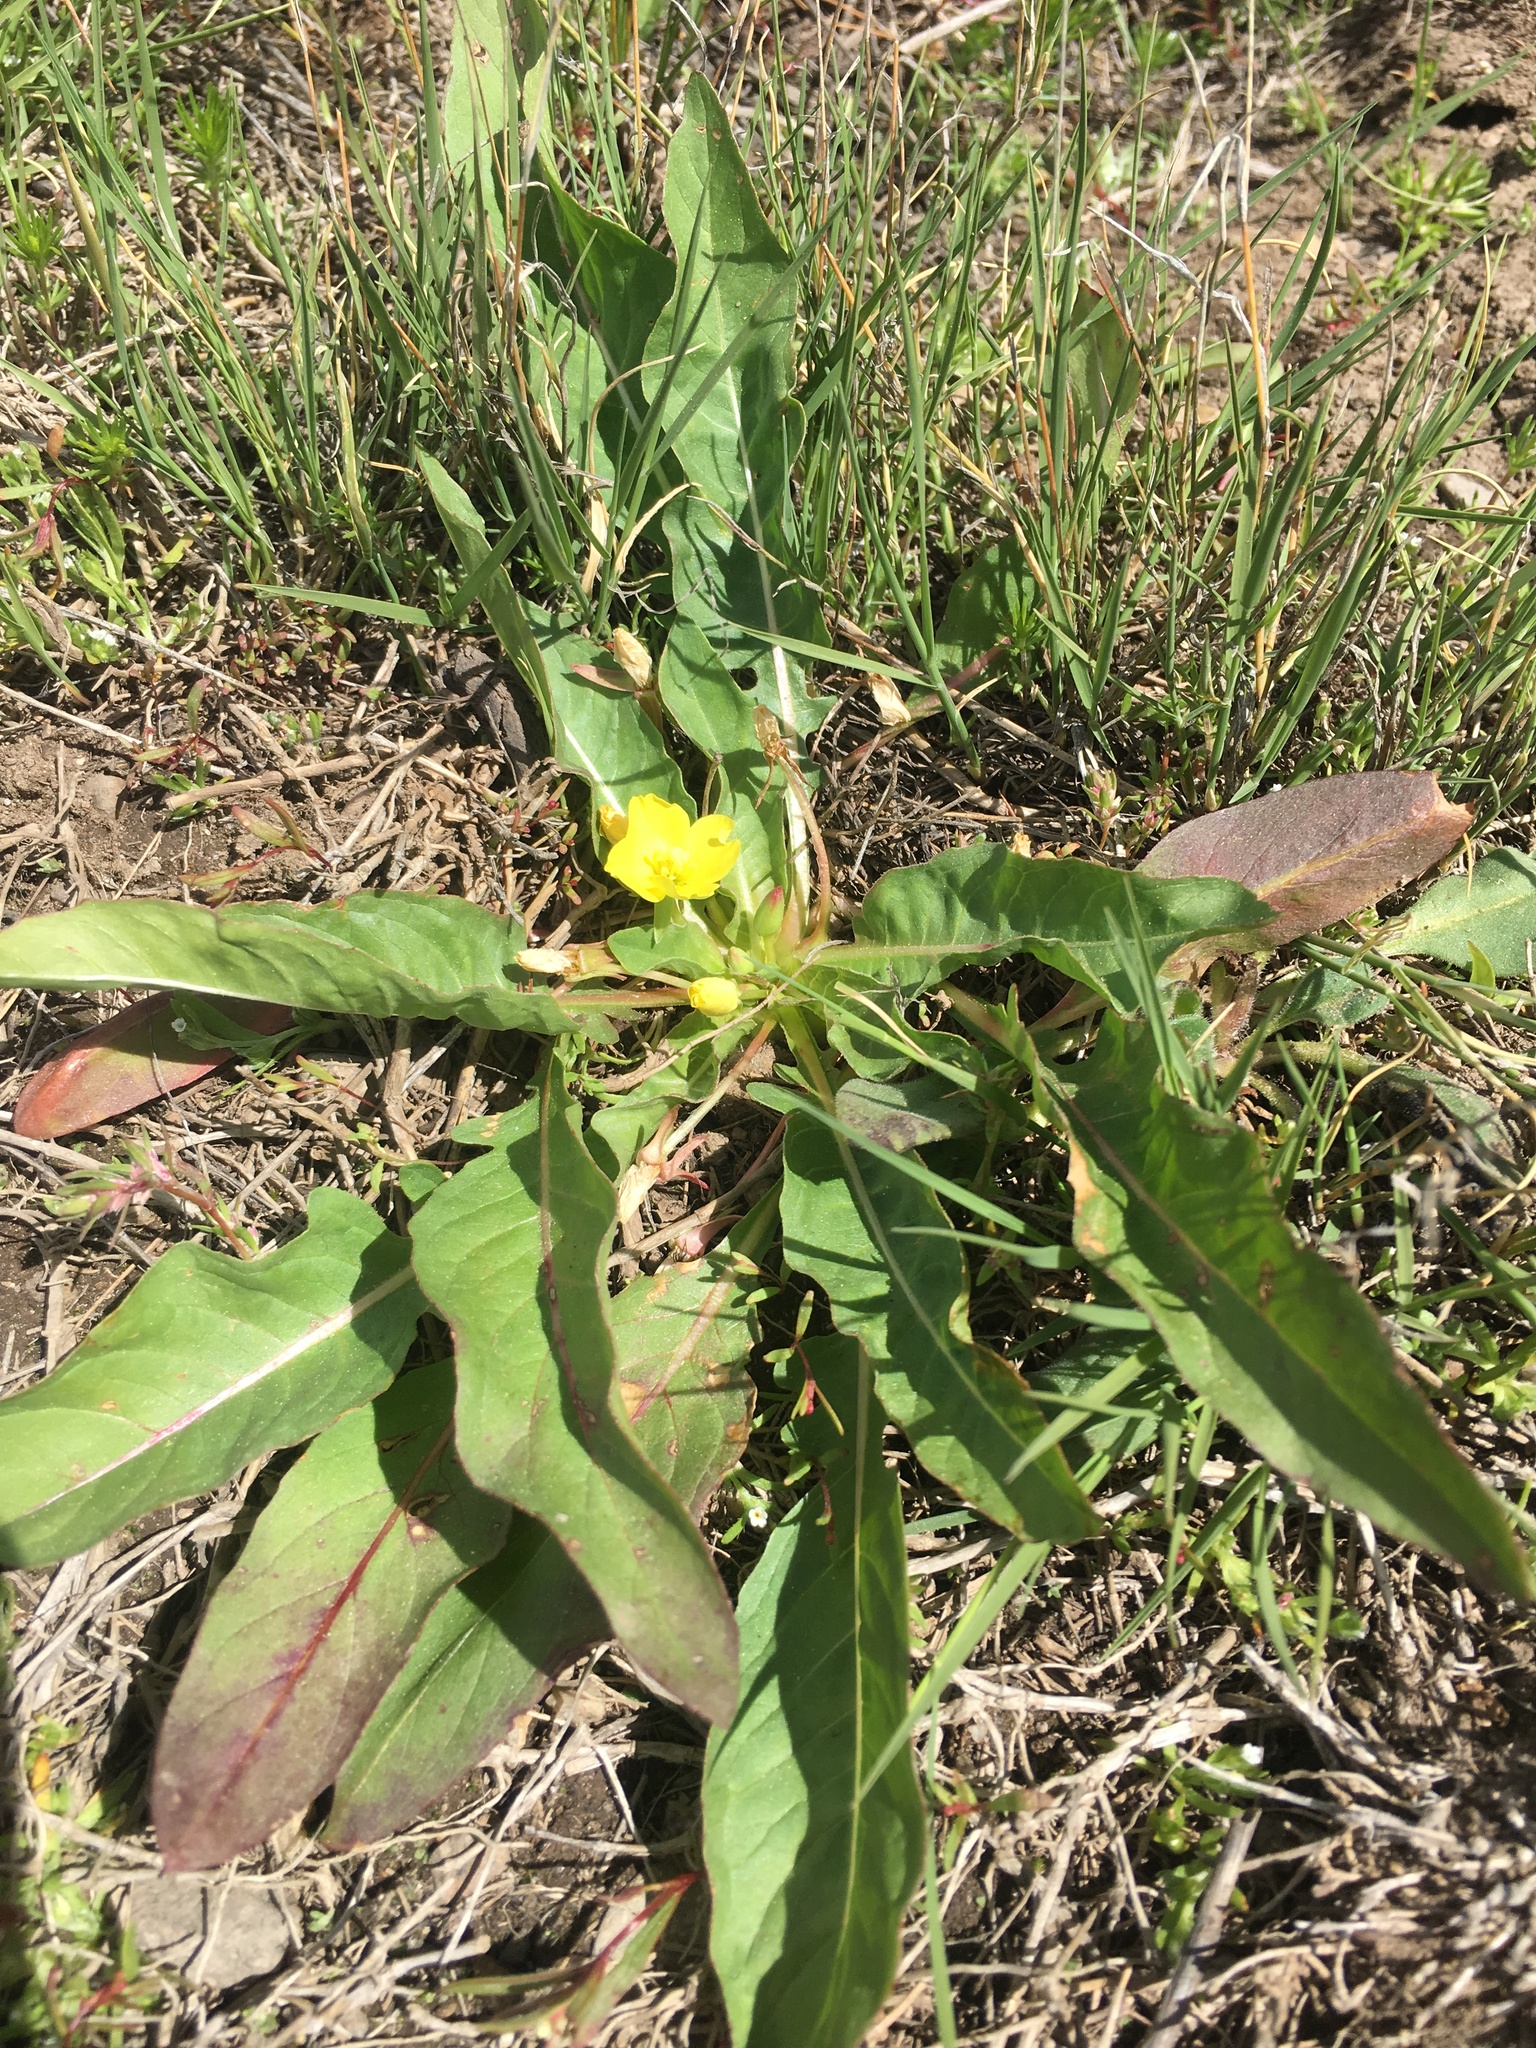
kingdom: Plantae
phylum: Tracheophyta
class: Magnoliopsida
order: Myrtales
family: Onagraceae
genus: Taraxia
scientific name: Taraxia subacaulis
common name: Diffuseflower evening primrose
